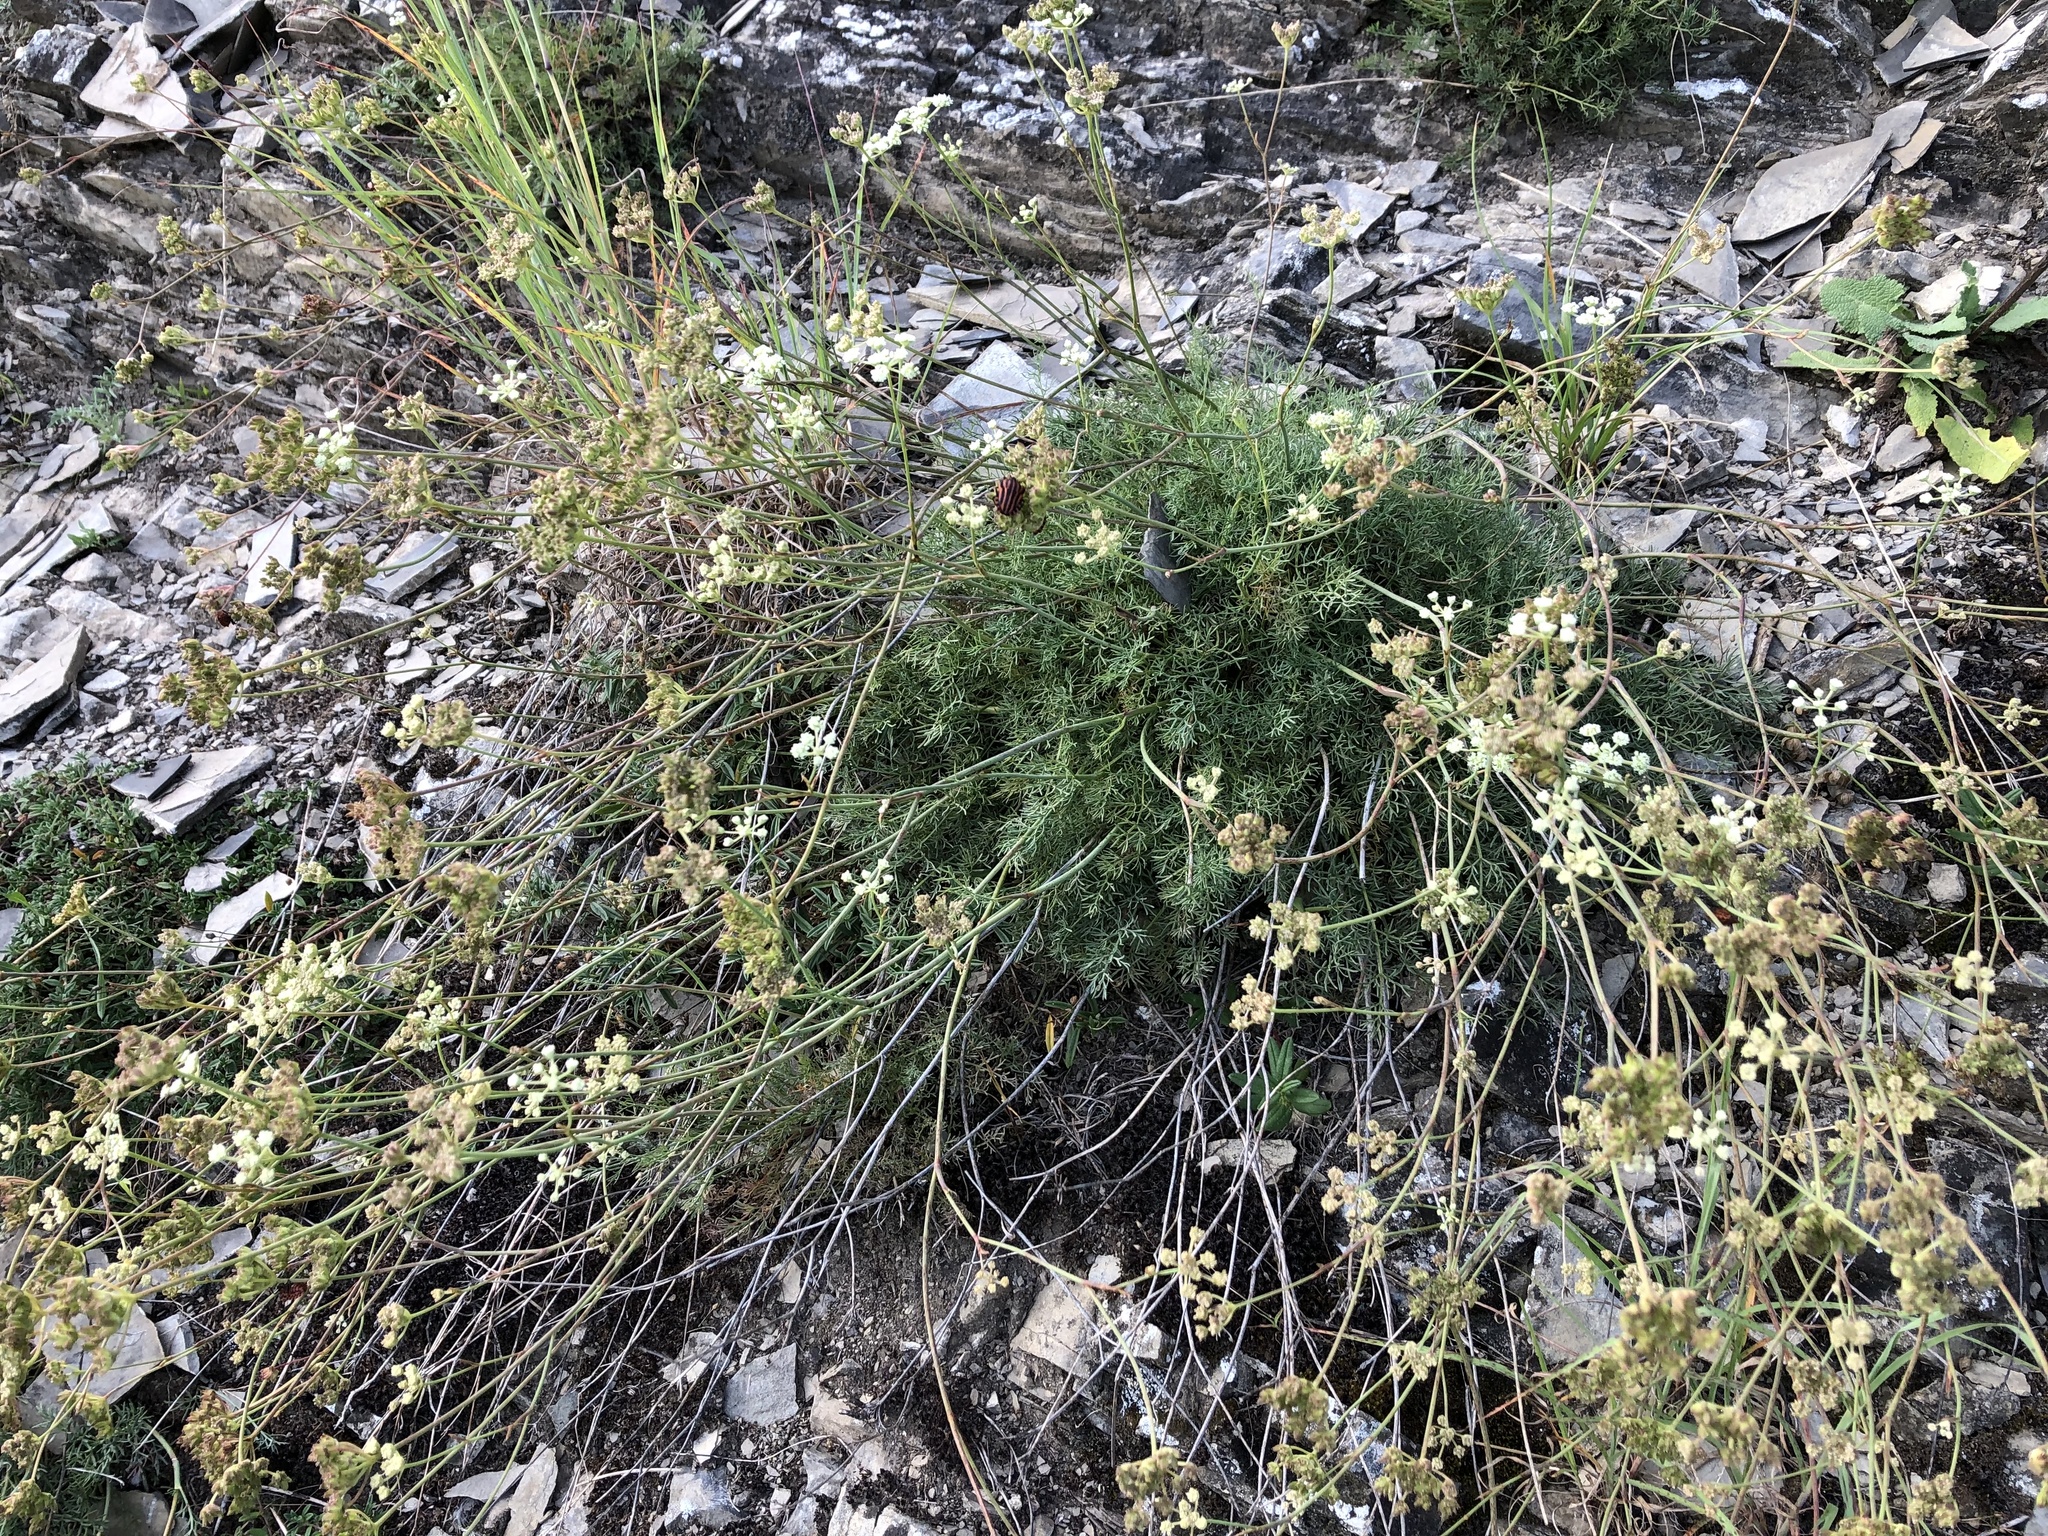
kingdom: Plantae
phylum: Tracheophyta
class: Magnoliopsida
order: Apiales
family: Apiaceae
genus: Hippomarathrum
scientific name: Hippomarathrum
